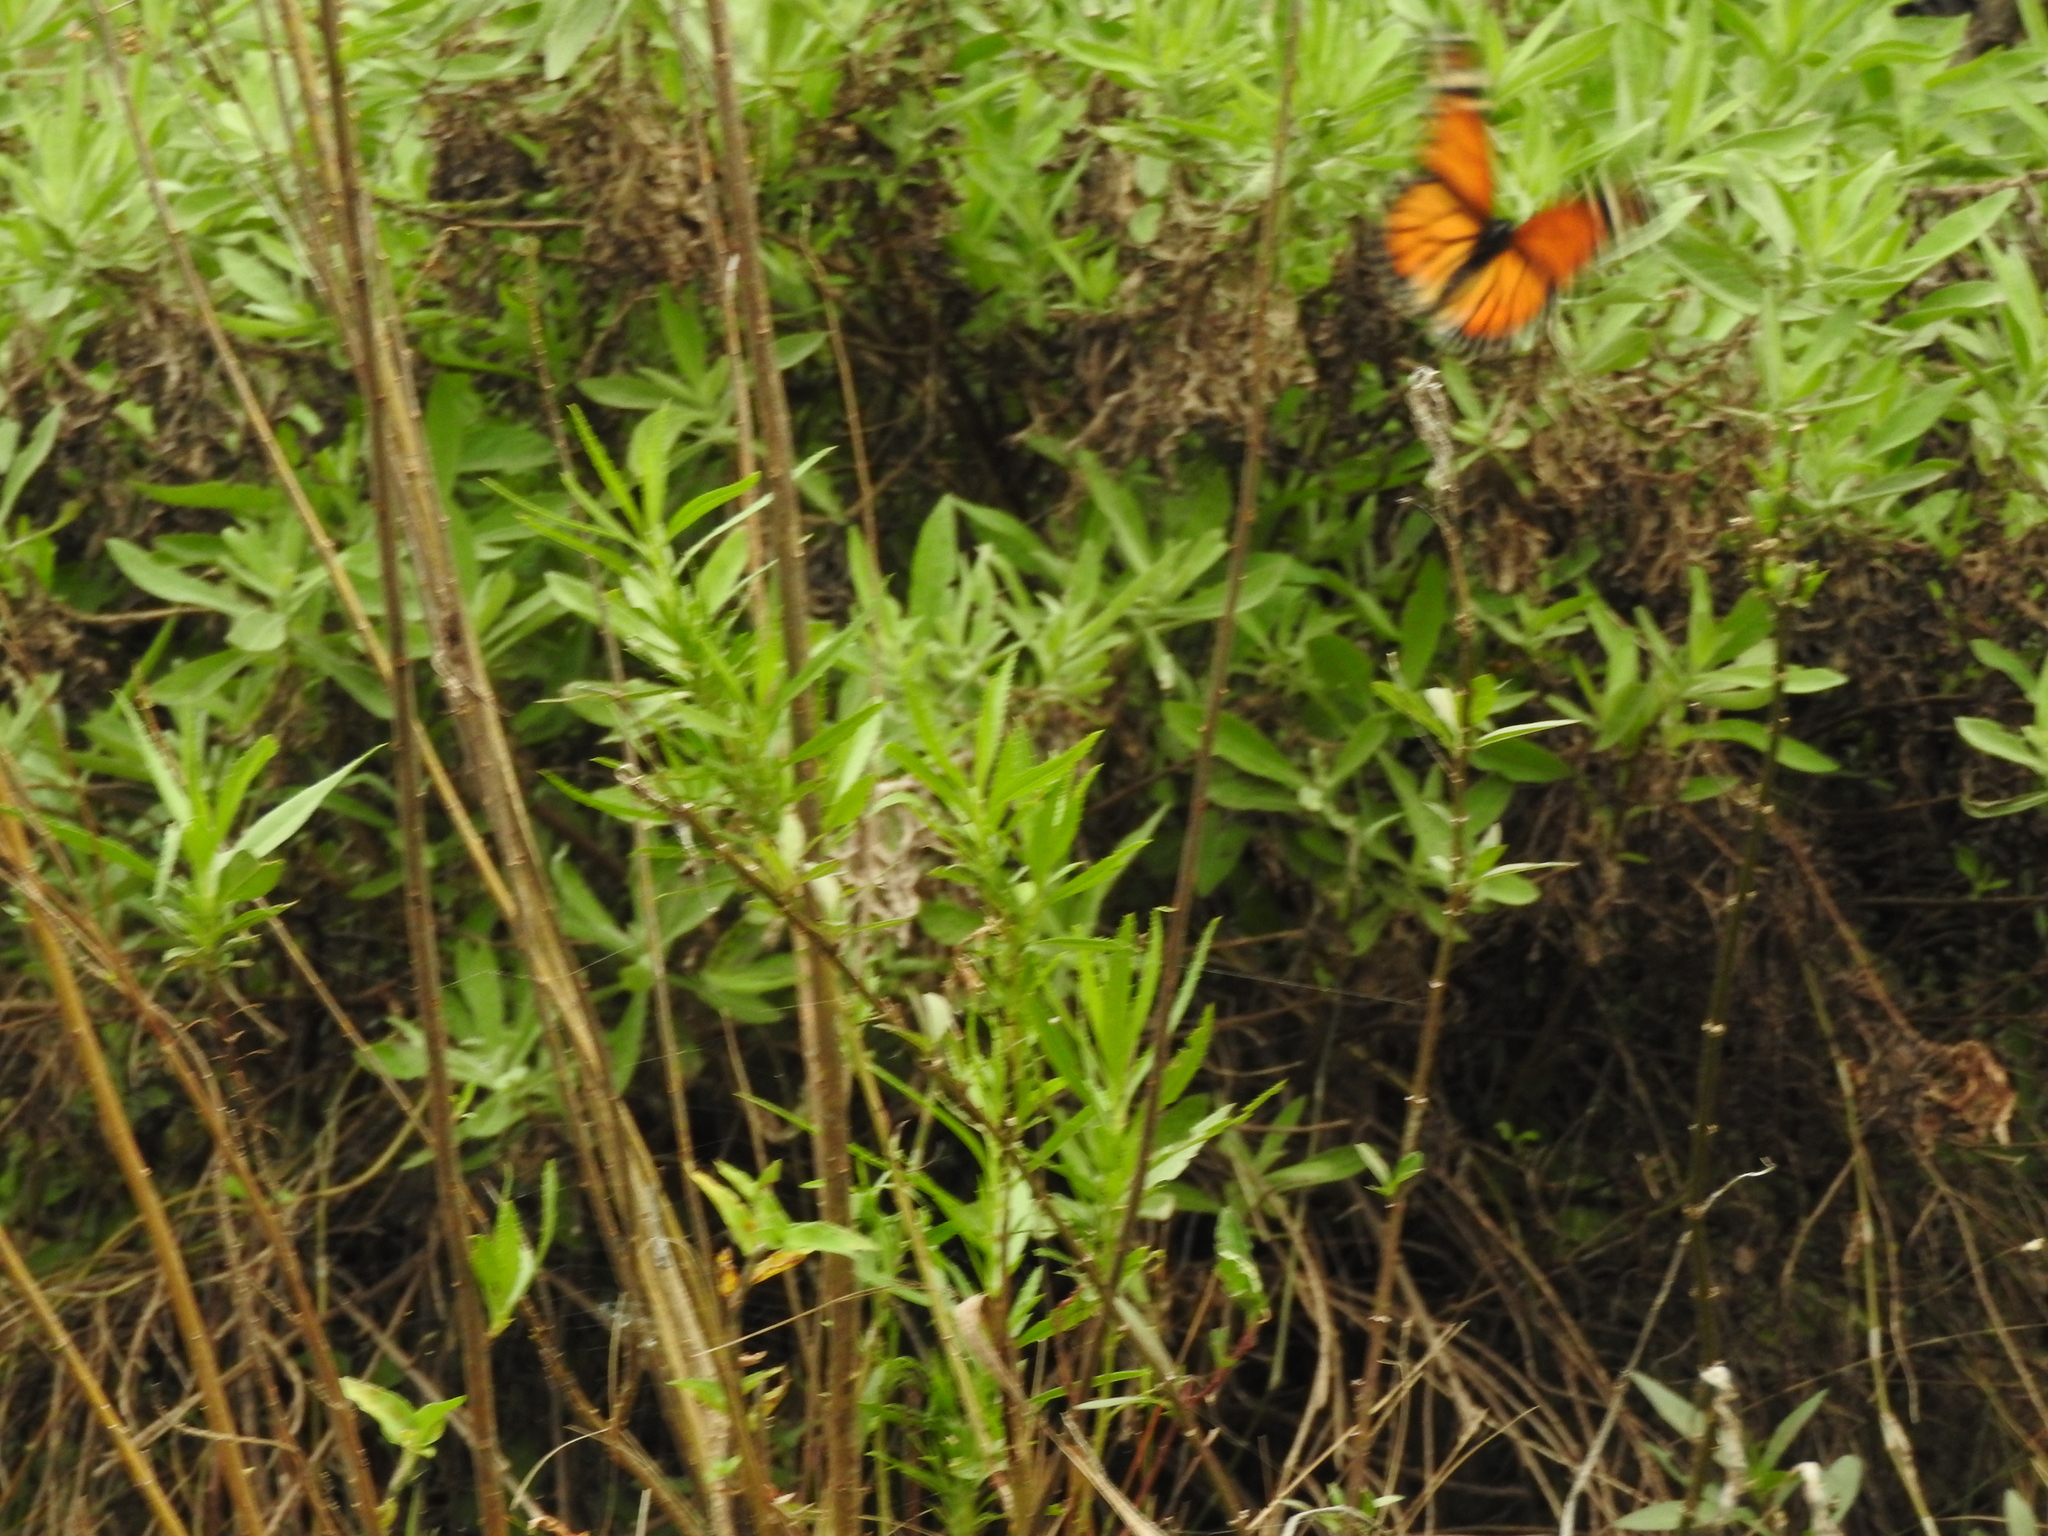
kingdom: Animalia
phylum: Arthropoda
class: Insecta
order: Lepidoptera
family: Nymphalidae
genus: Danaus
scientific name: Danaus plexippus
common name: Monarch
